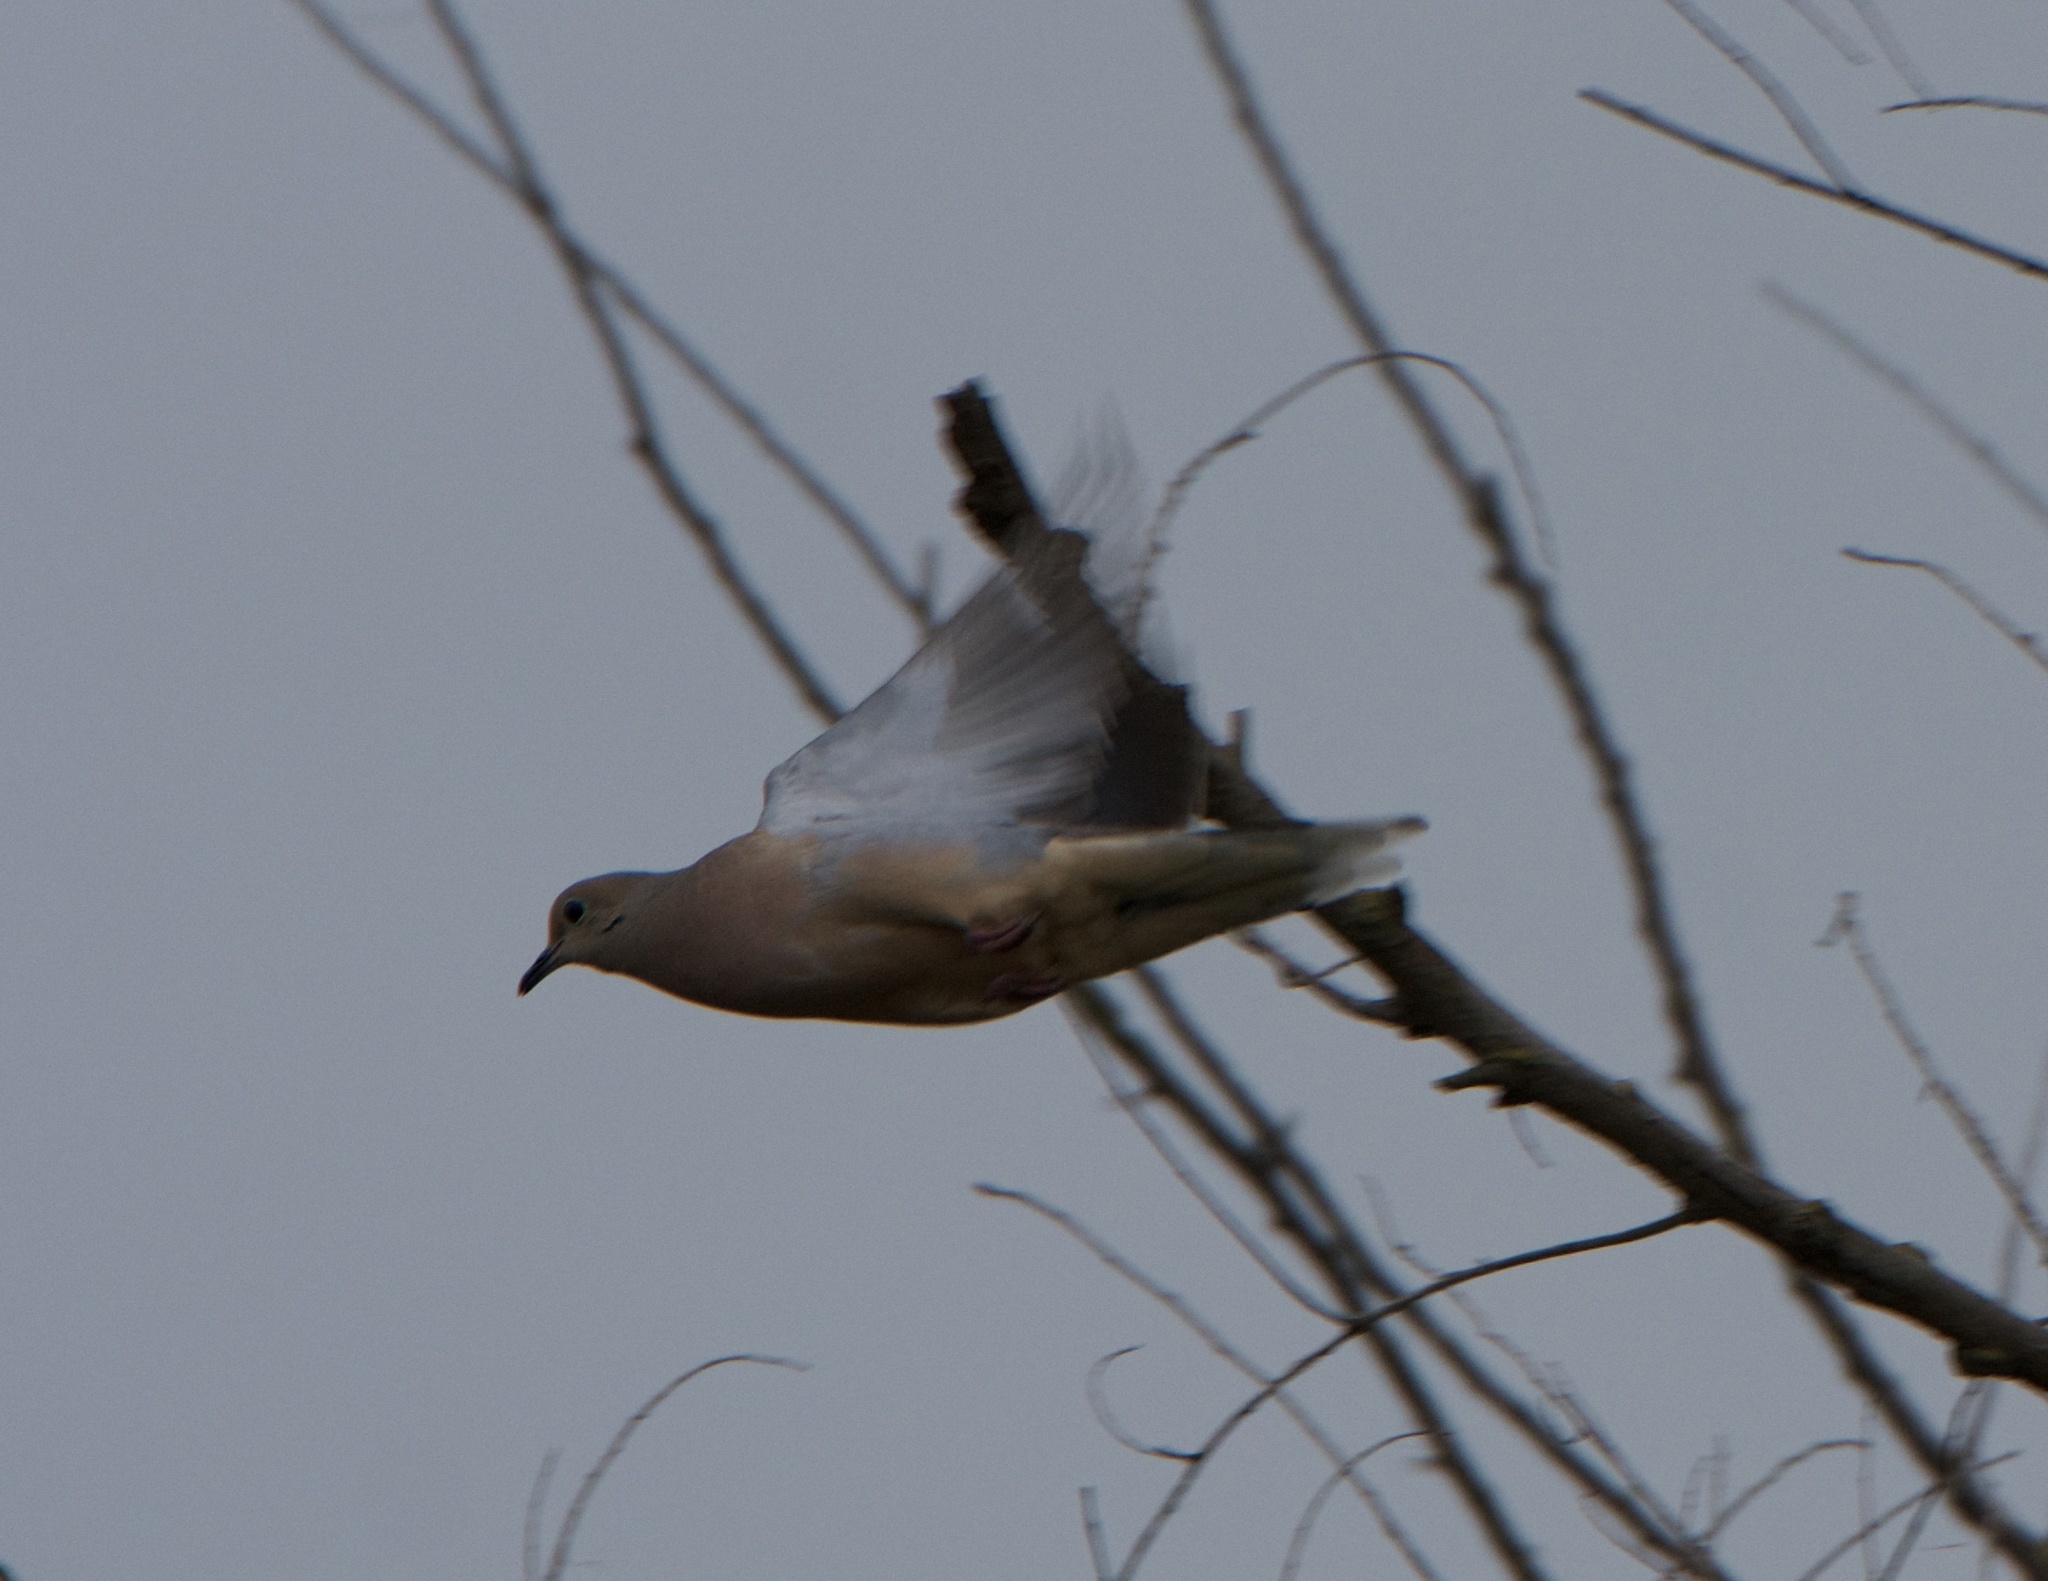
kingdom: Animalia
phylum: Chordata
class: Aves
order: Columbiformes
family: Columbidae
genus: Zenaida
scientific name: Zenaida macroura
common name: Mourning dove
